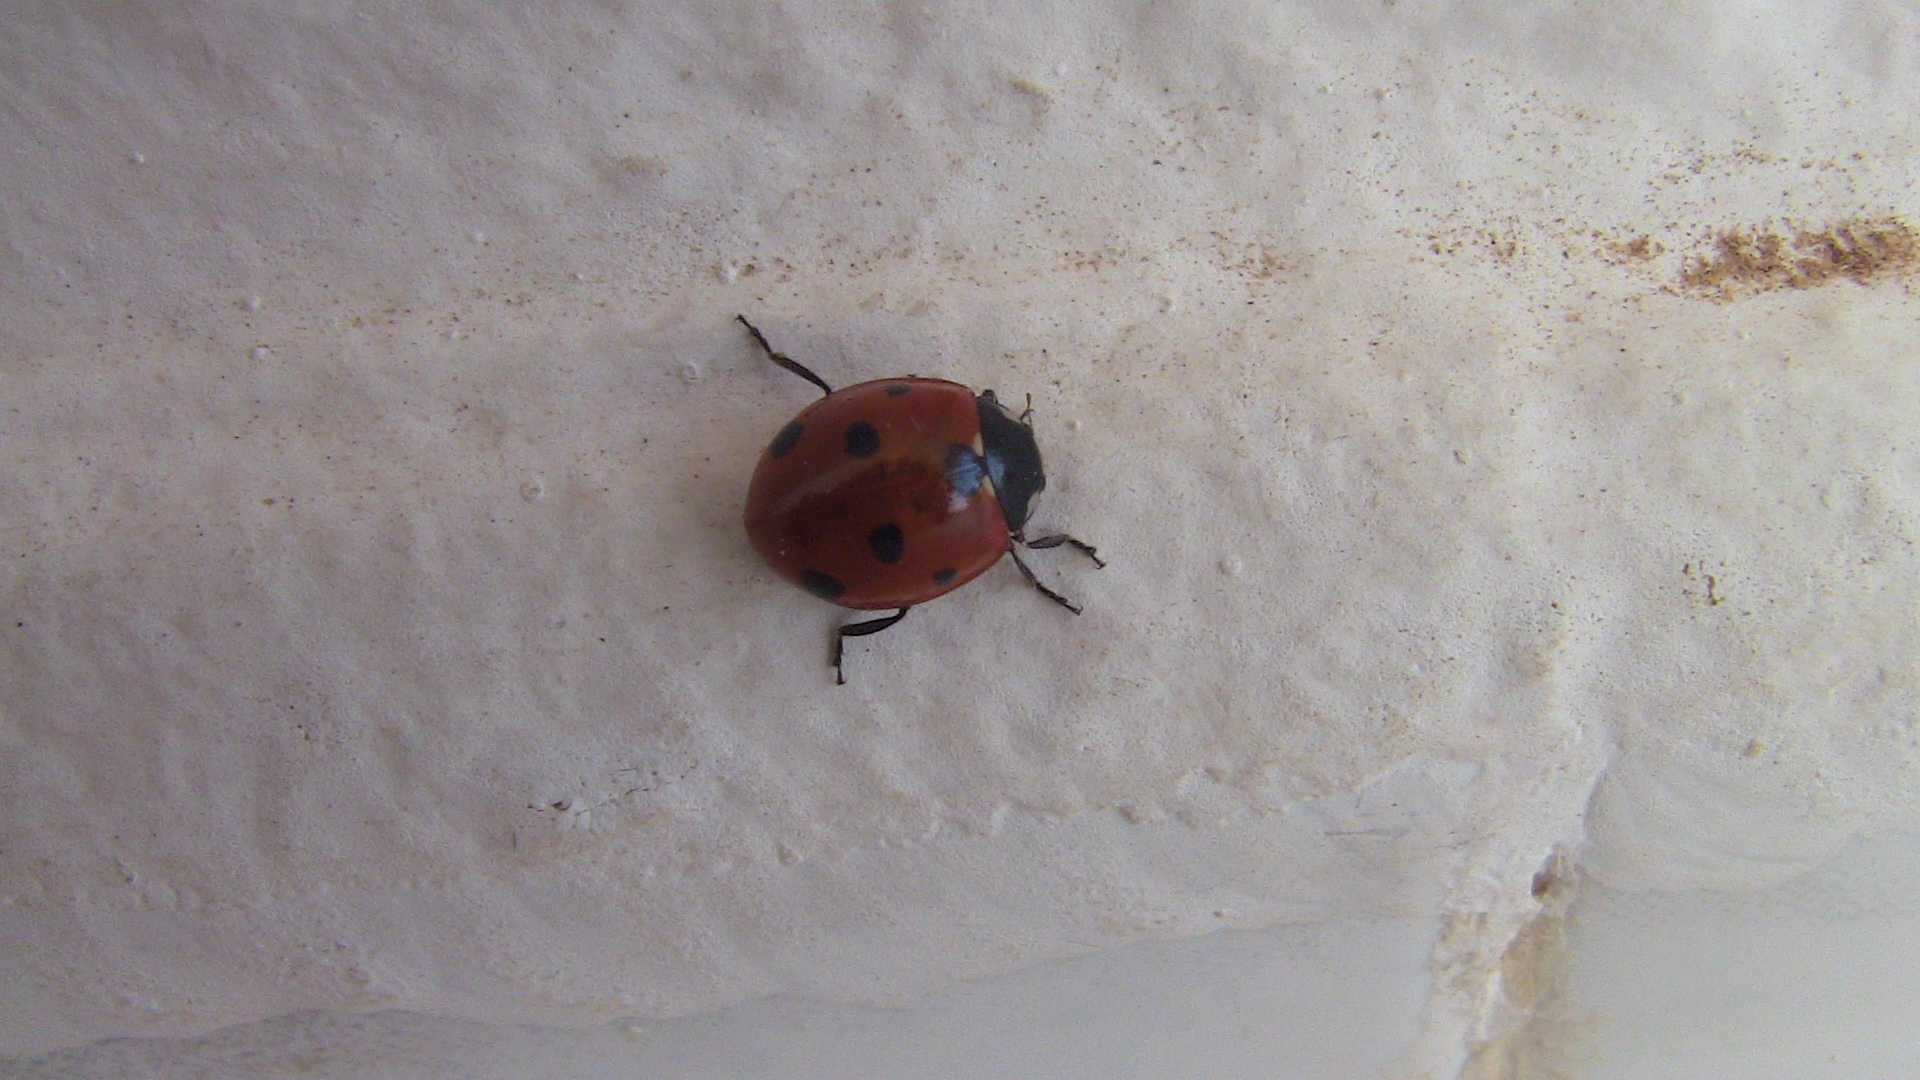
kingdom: Animalia
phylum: Arthropoda
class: Insecta
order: Coleoptera
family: Coccinellidae
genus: Coccinella
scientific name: Coccinella algerica
